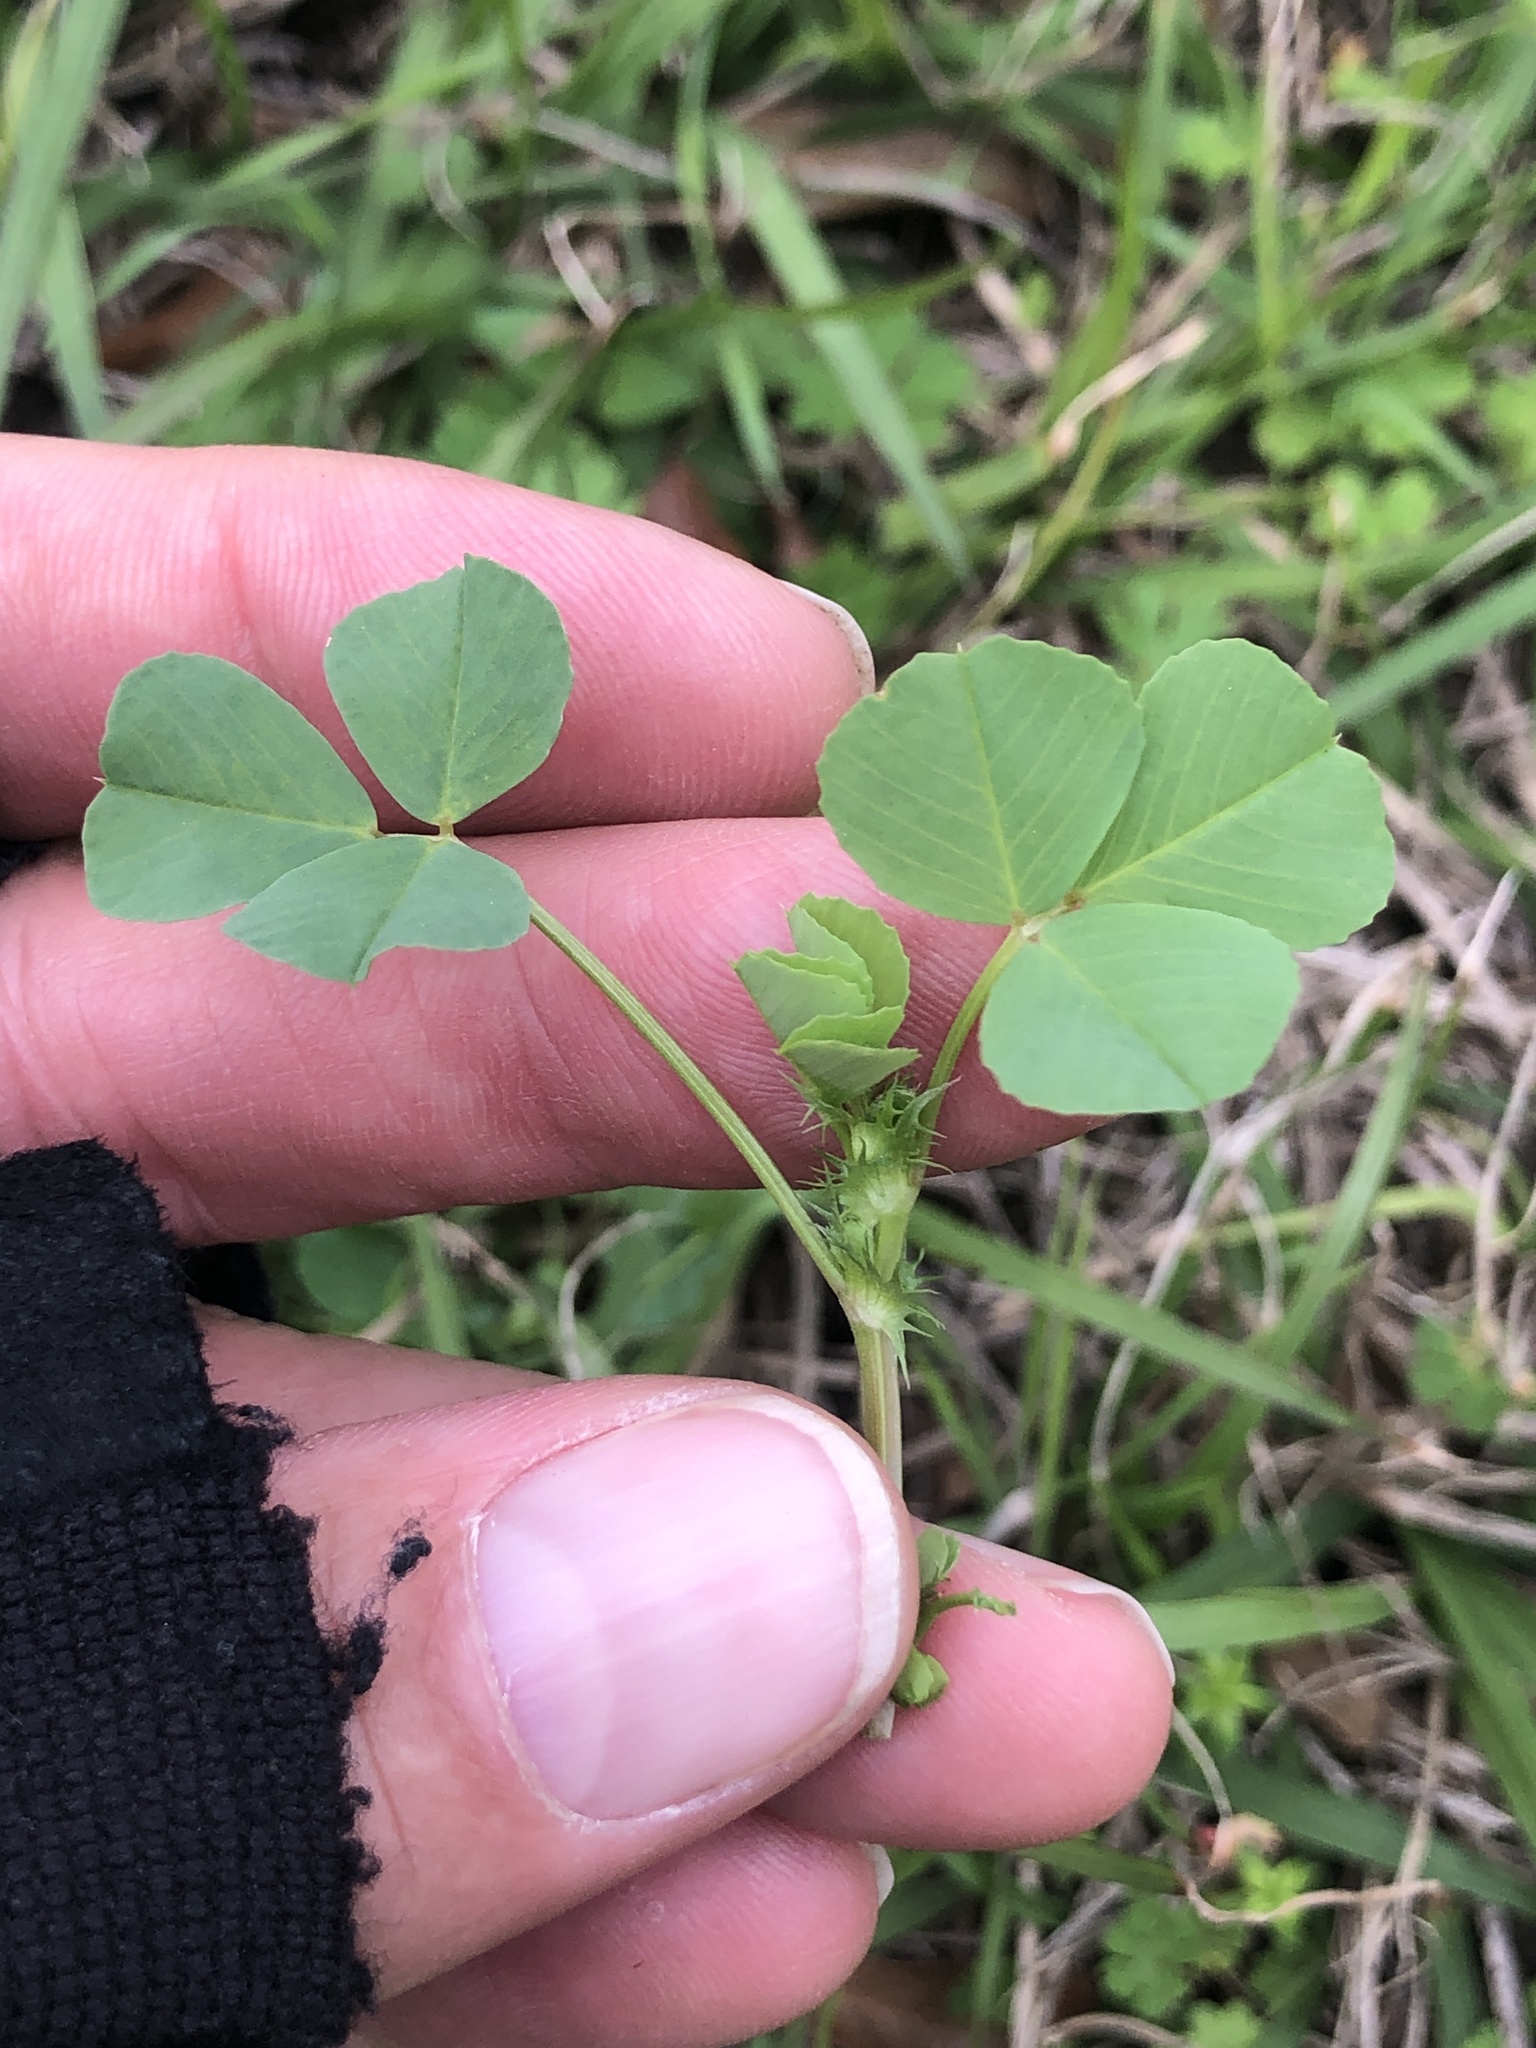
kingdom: Plantae
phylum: Tracheophyta
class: Magnoliopsida
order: Fabales
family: Fabaceae
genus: Medicago
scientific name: Medicago polymorpha
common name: Burclover
